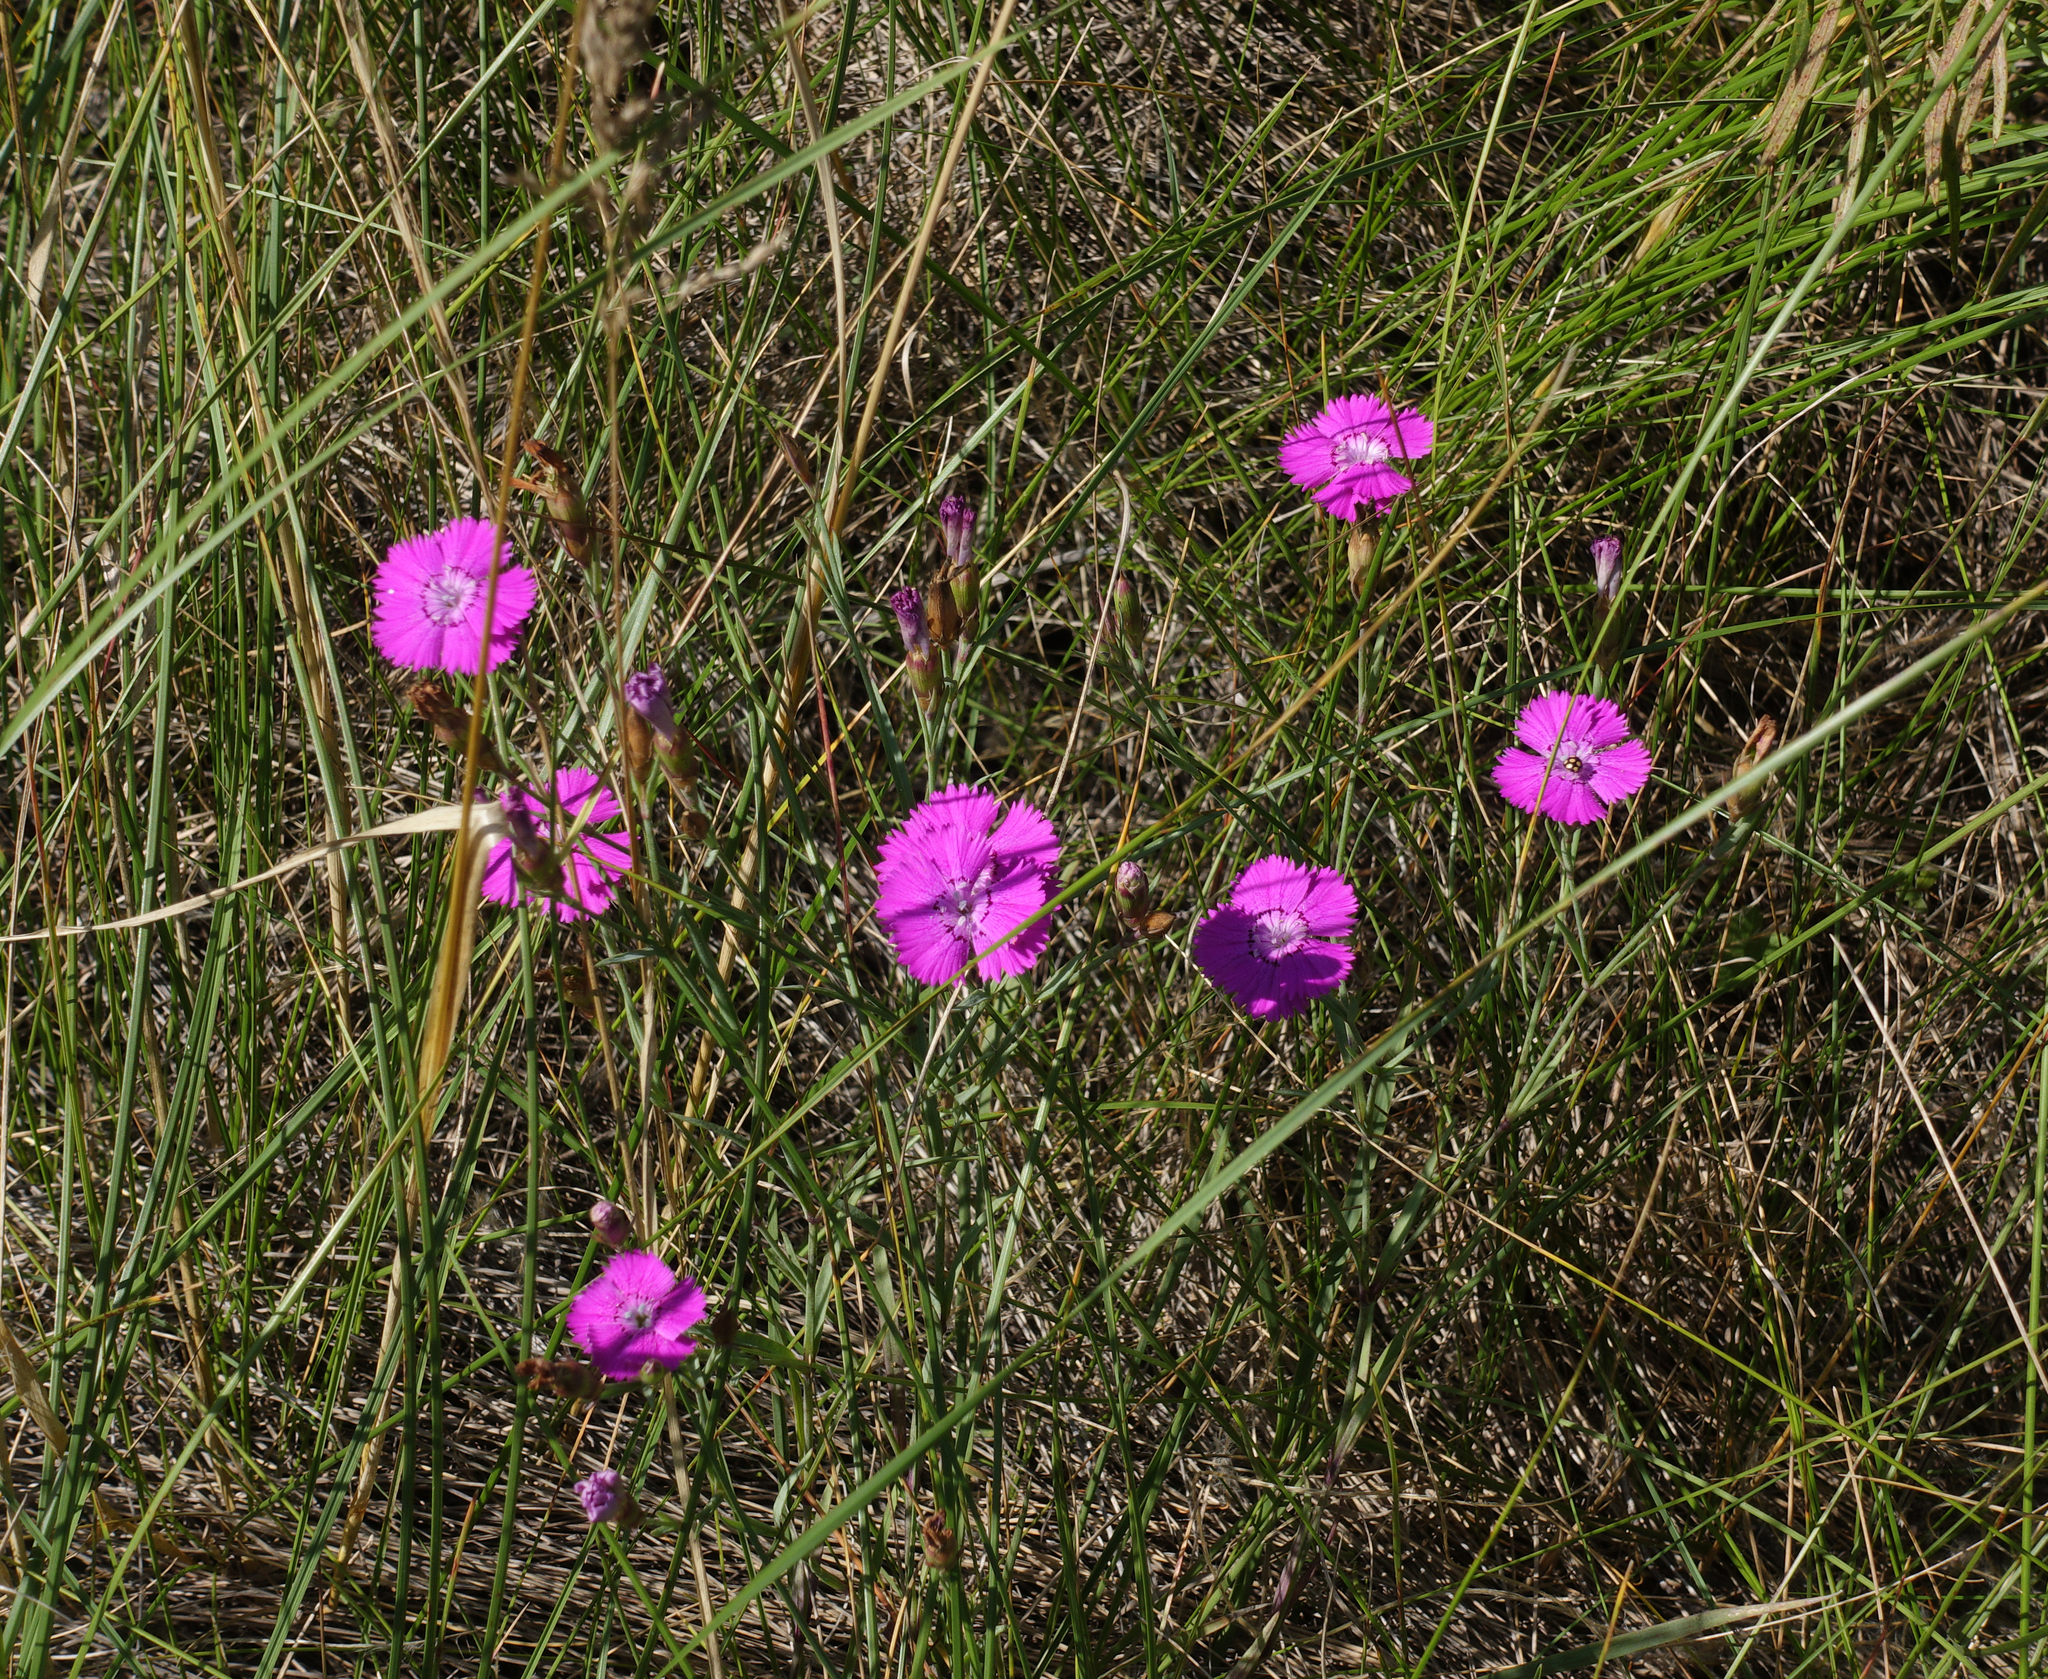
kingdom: Plantae
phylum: Tracheophyta
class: Magnoliopsida
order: Caryophyllales
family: Caryophyllaceae
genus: Dianthus
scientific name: Dianthus chinensis
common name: Rainbow pink
